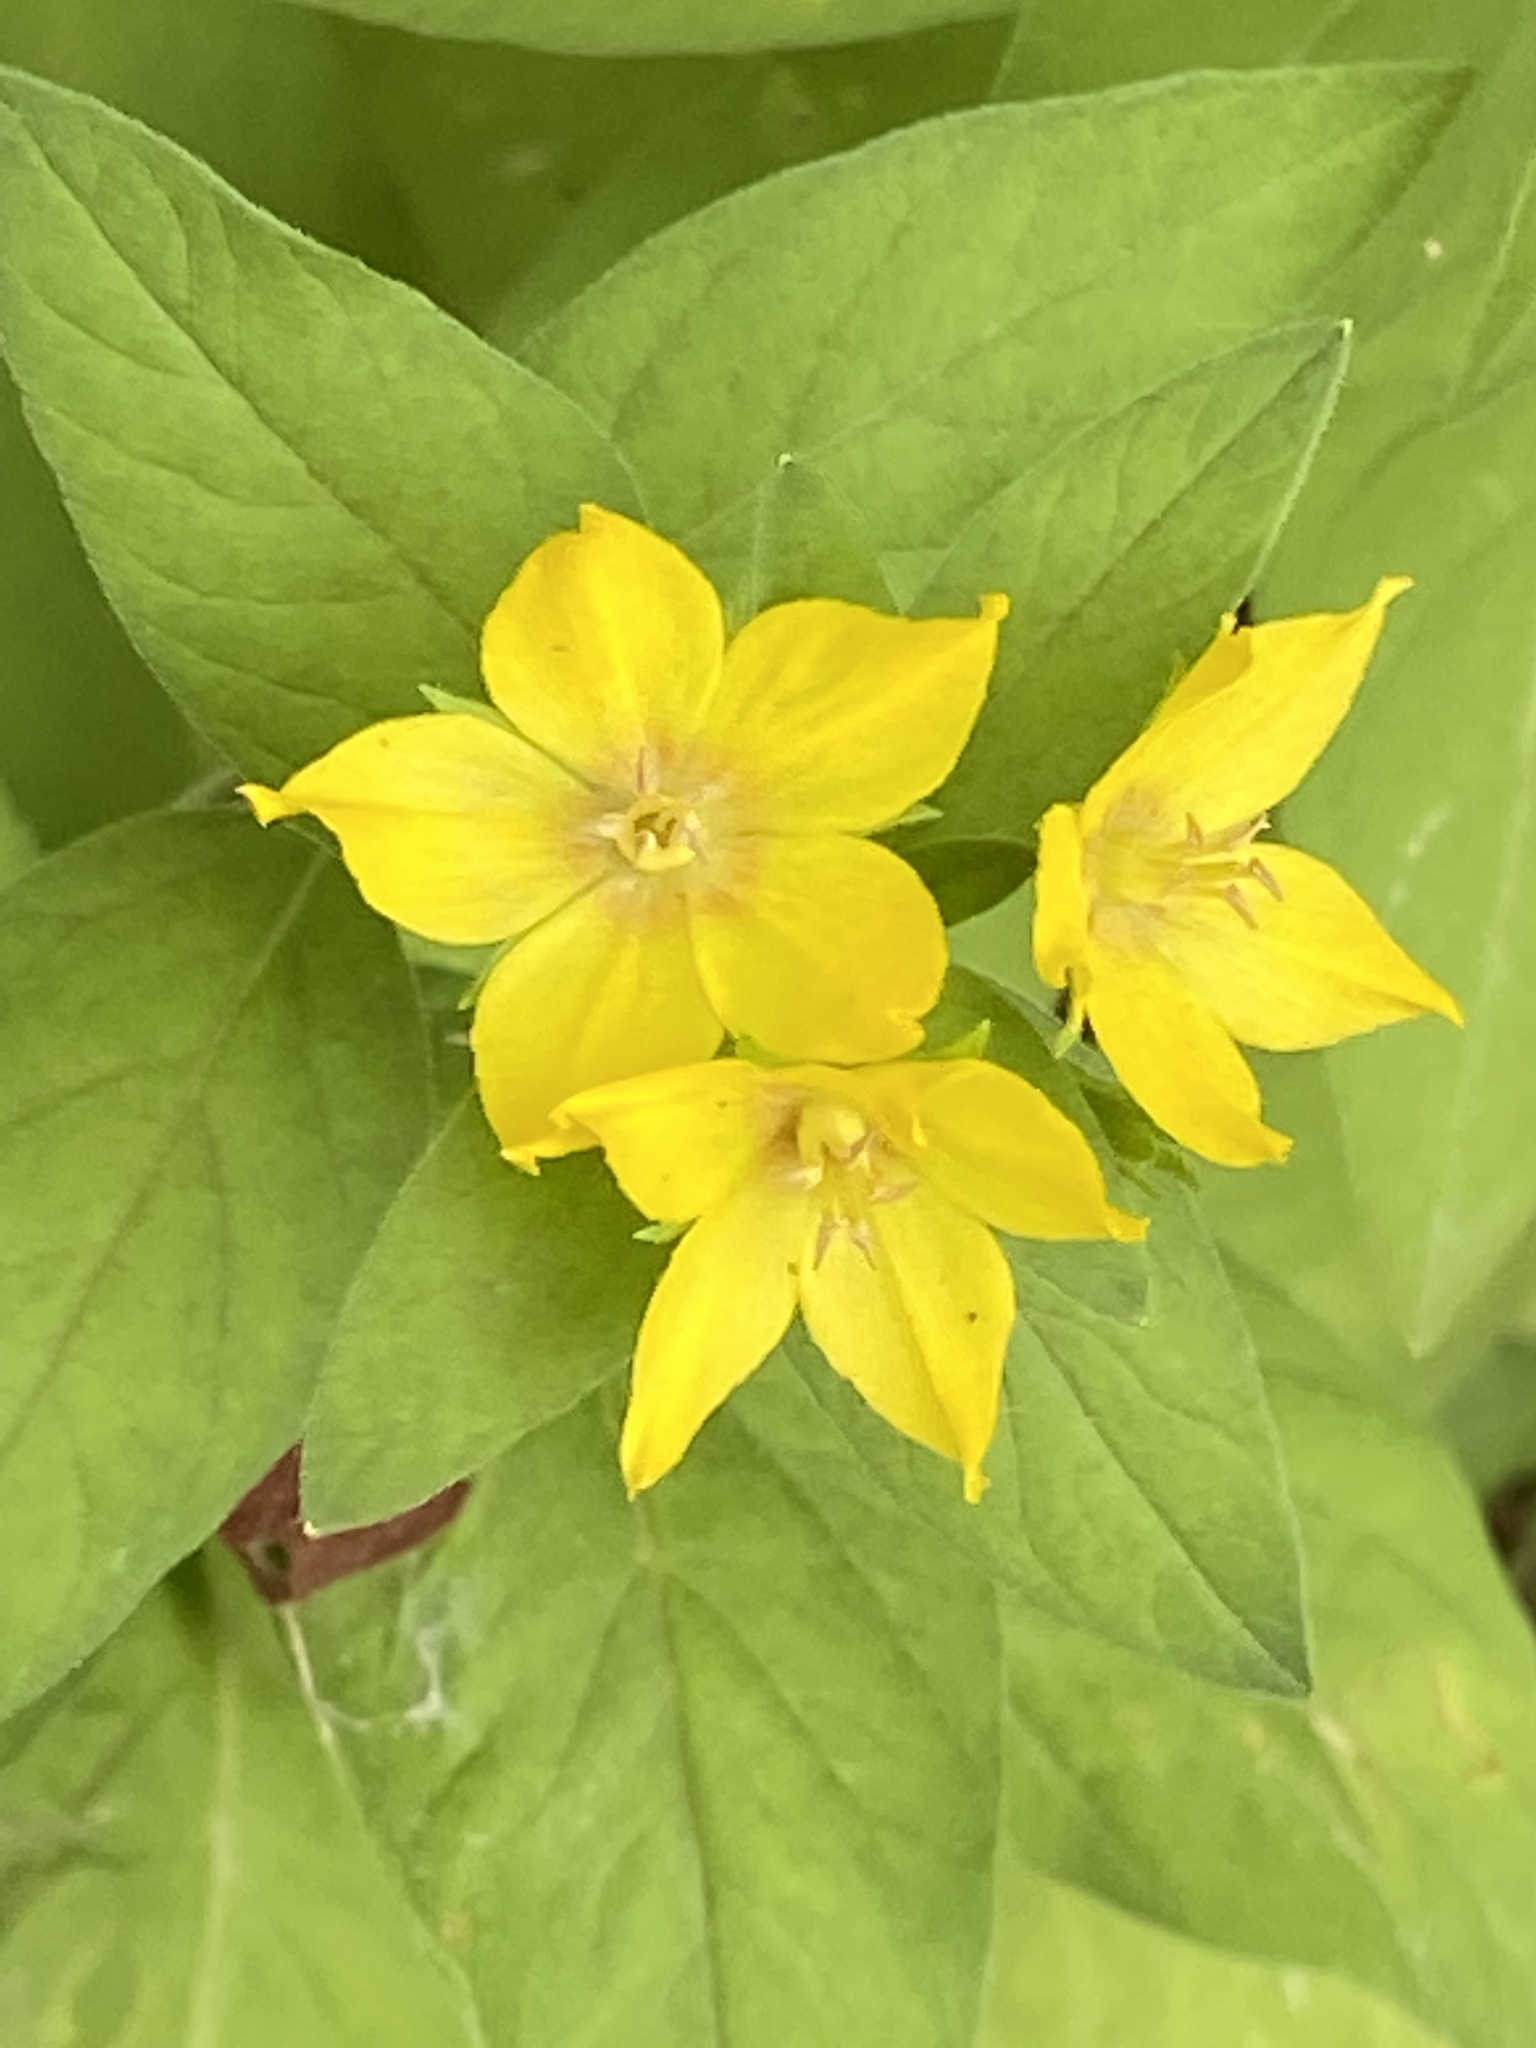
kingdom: Plantae
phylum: Tracheophyta
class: Magnoliopsida
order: Ericales
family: Primulaceae
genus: Lysimachia
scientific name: Lysimachia punctata
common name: Dotted loosestrife
